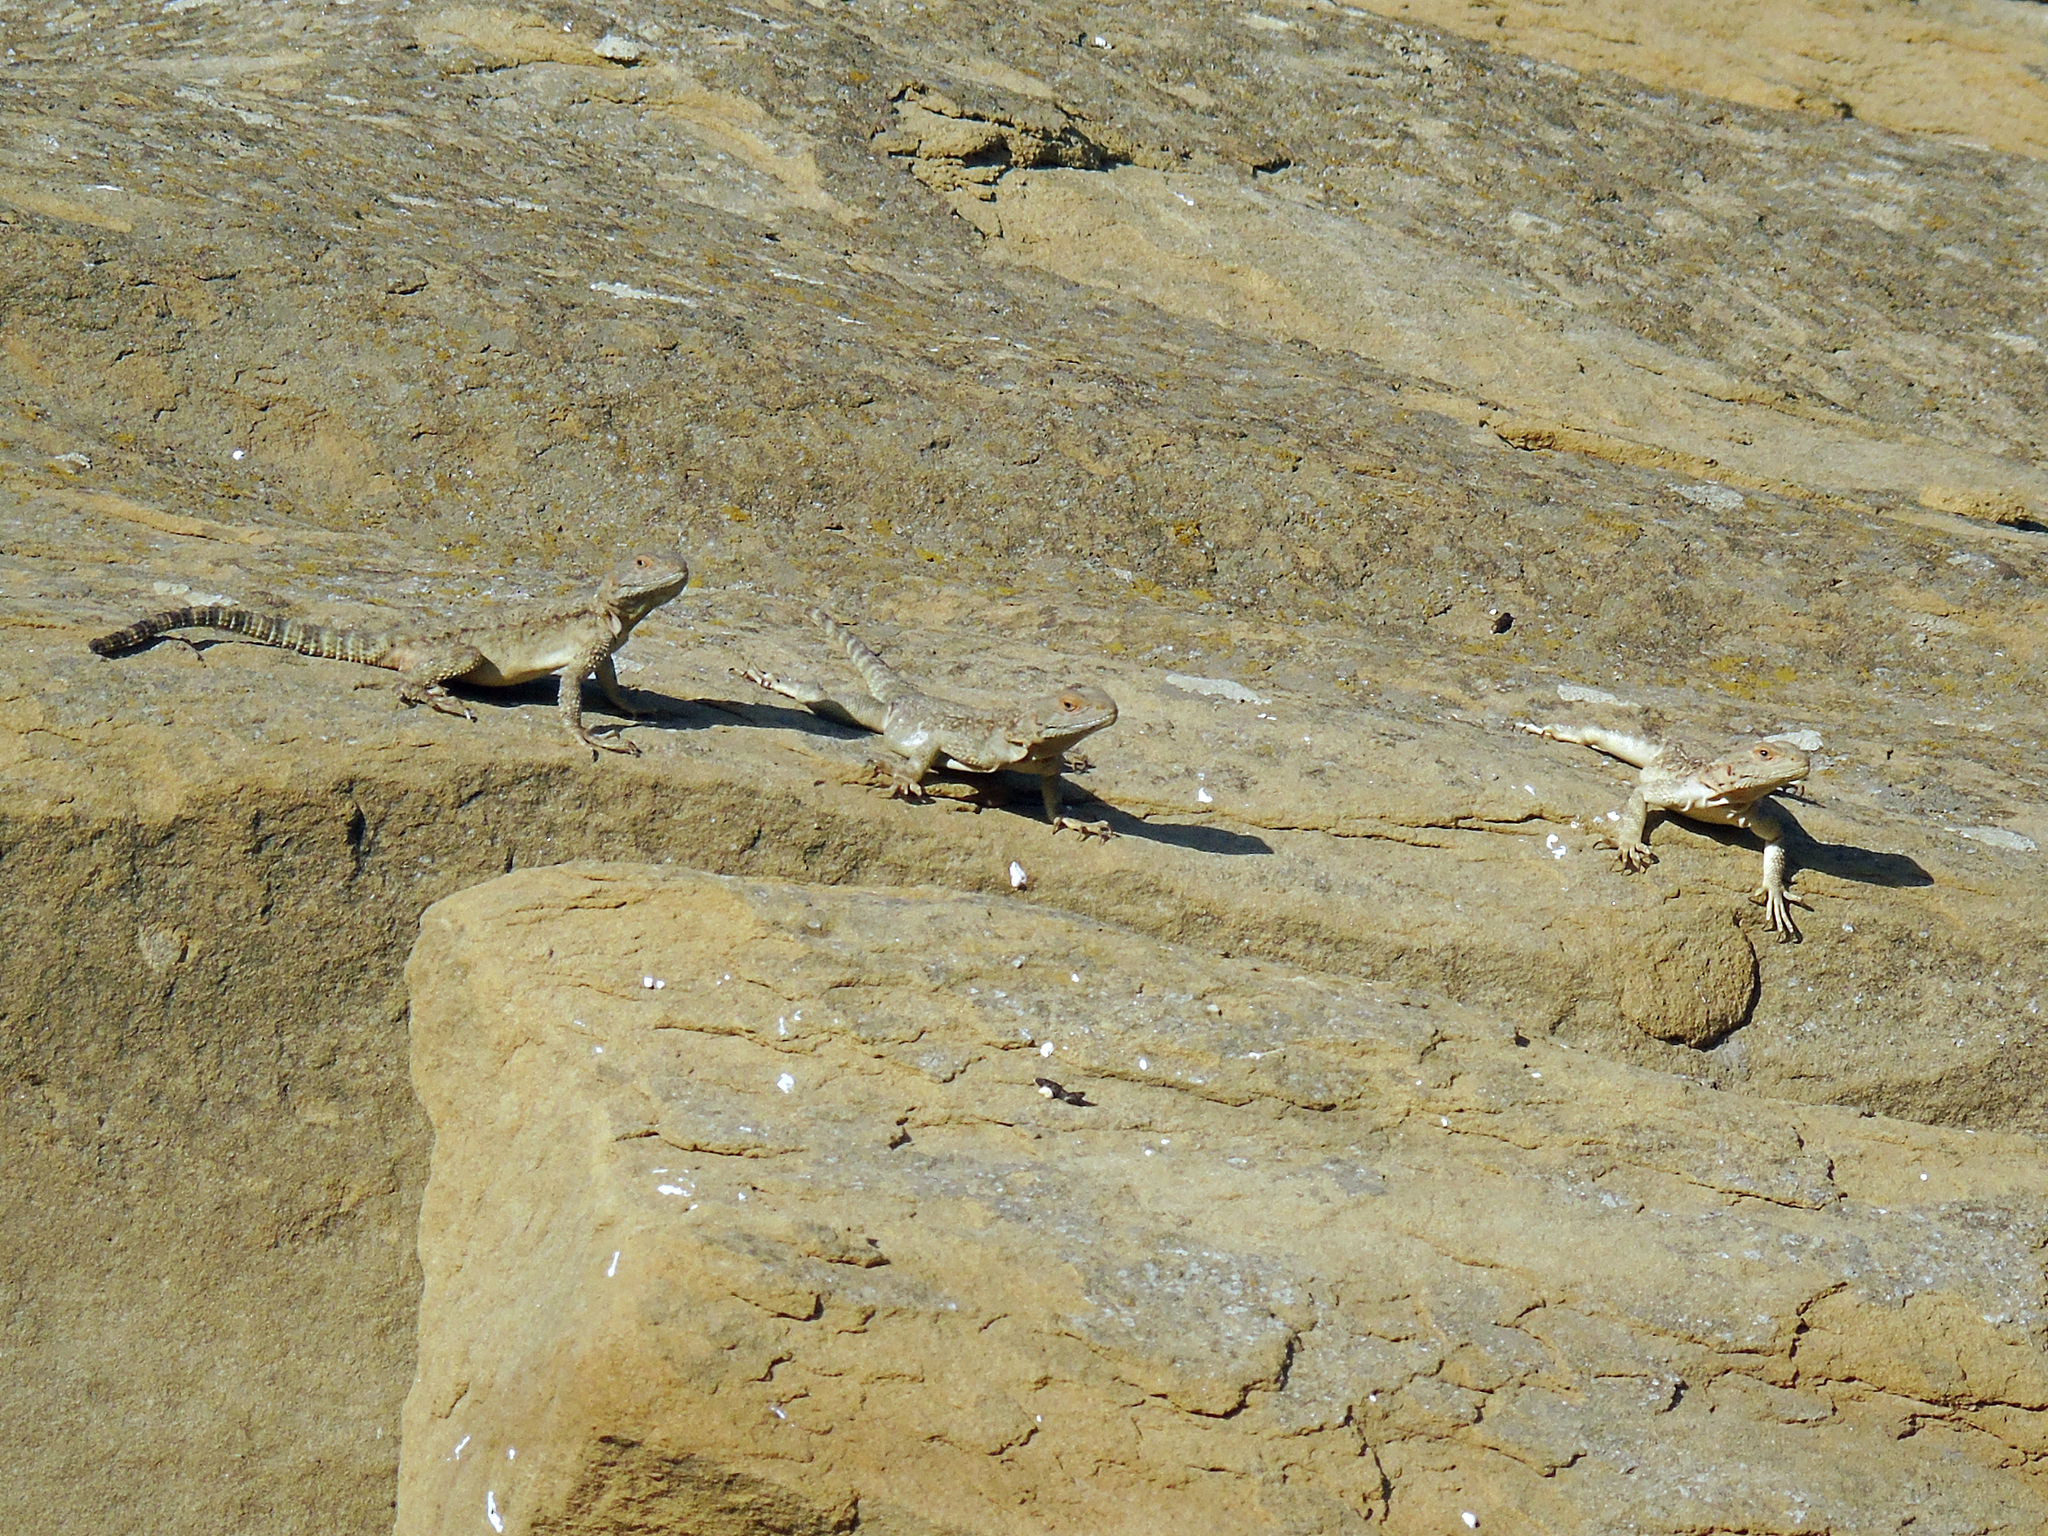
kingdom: Animalia
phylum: Chordata
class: Squamata
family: Agamidae
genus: Paralaudakia
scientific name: Paralaudakia caucasia
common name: Caucasian agama
